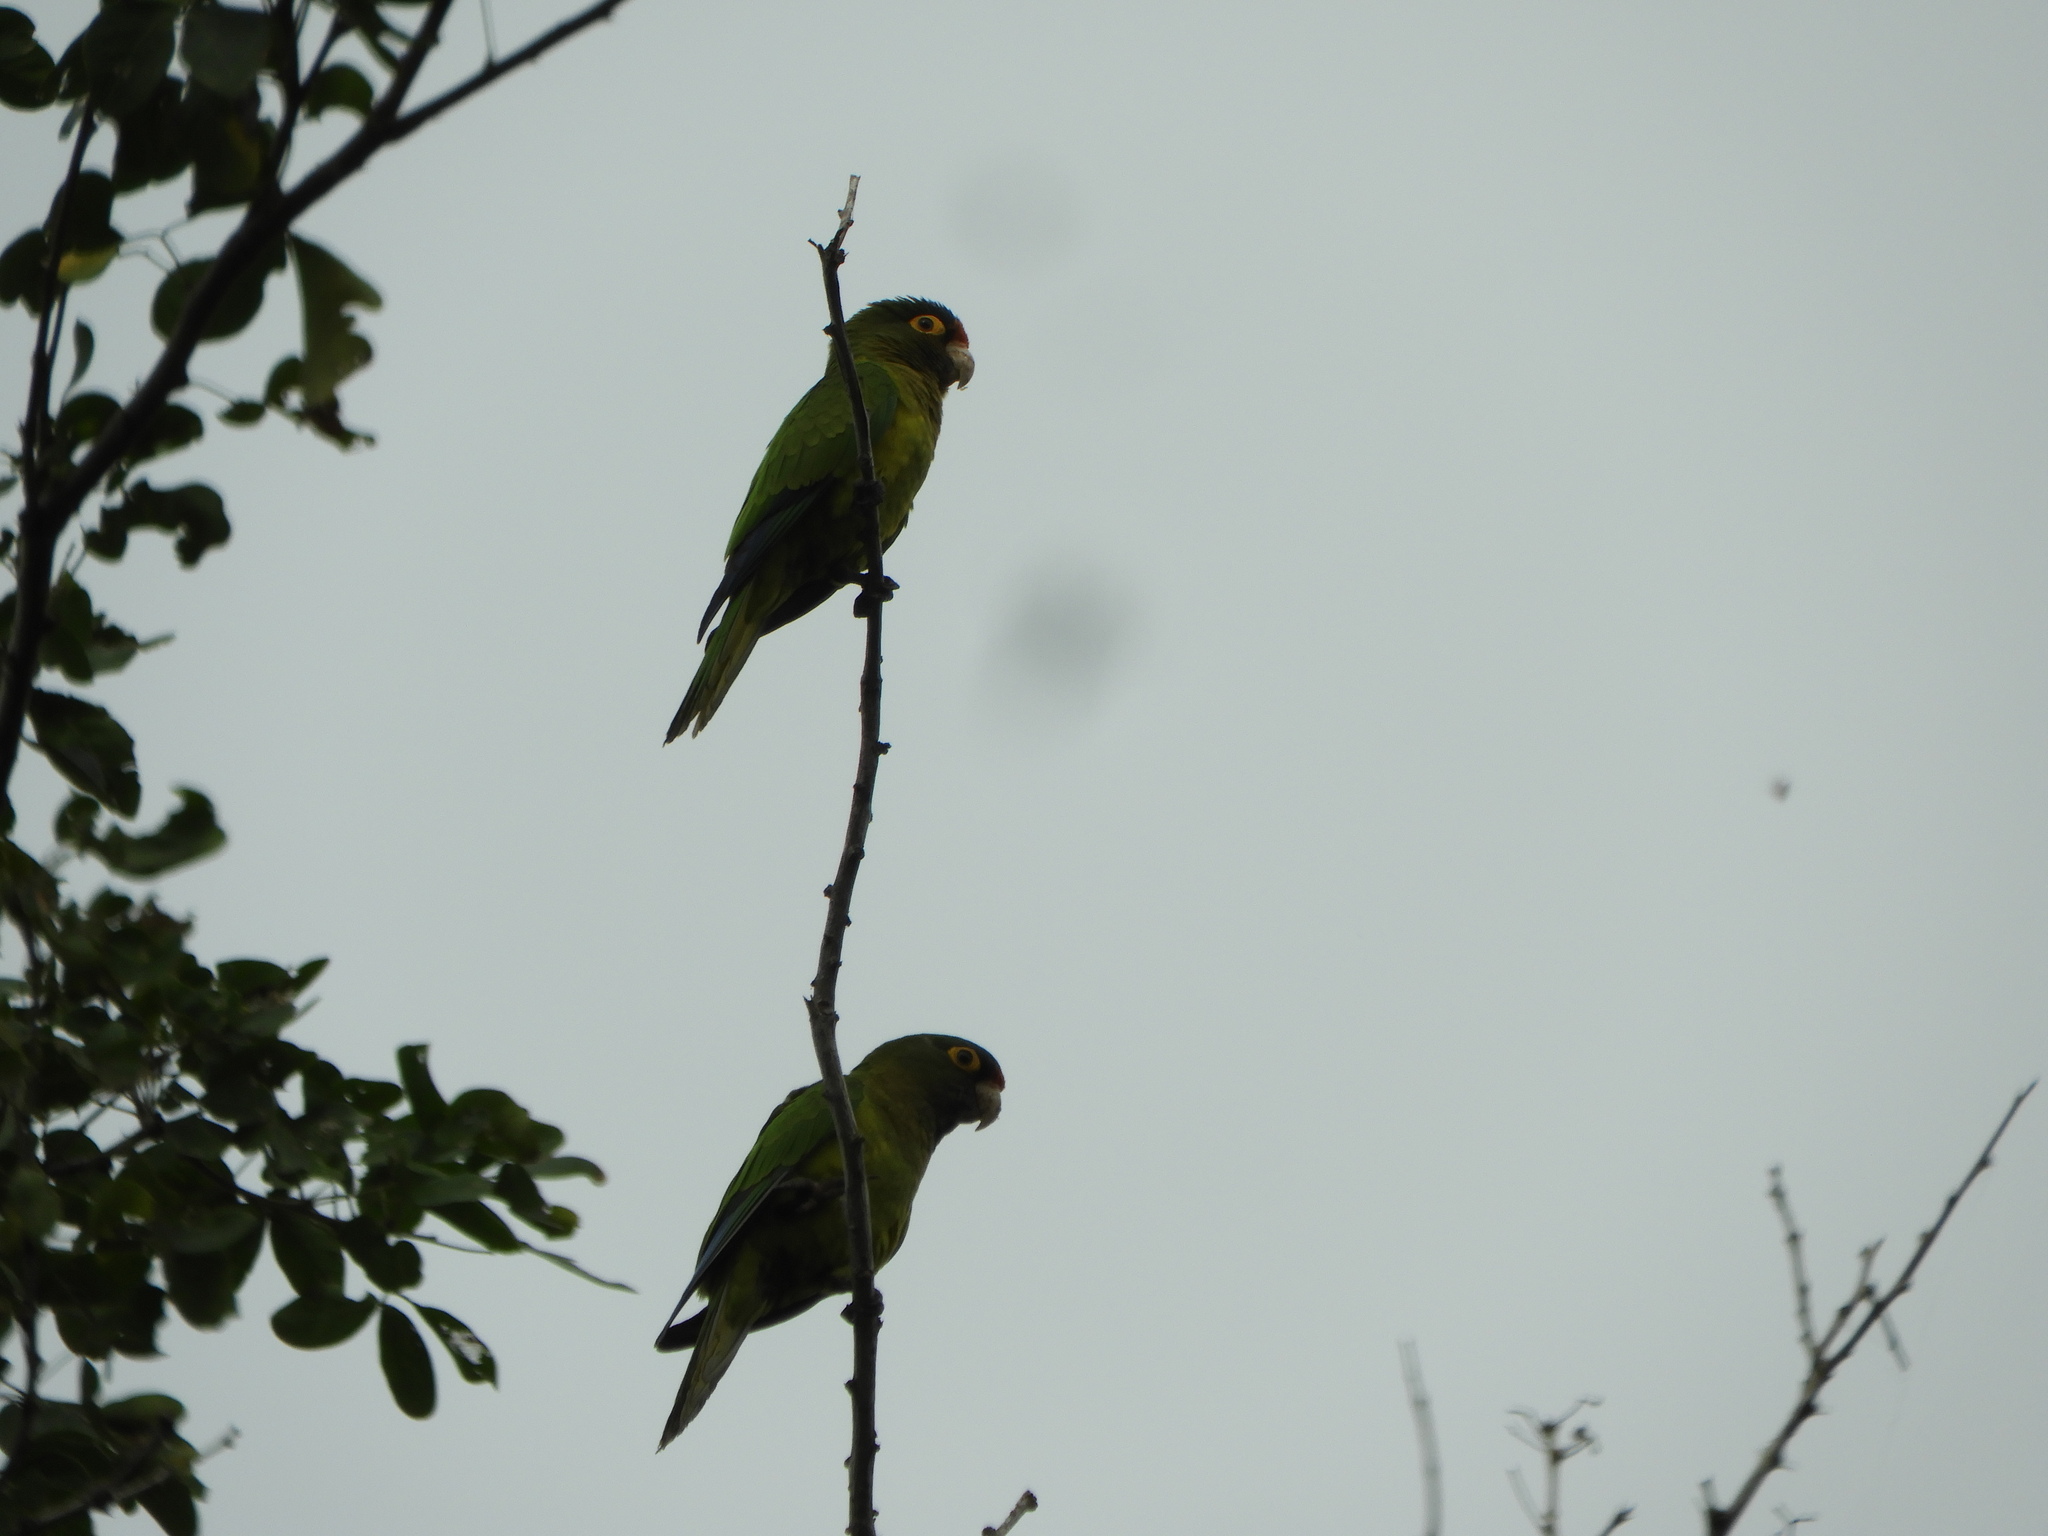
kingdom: Animalia
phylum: Chordata
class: Aves
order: Psittaciformes
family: Psittacidae
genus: Aratinga
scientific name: Aratinga canicularis
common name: Orange-fronted parakeet
